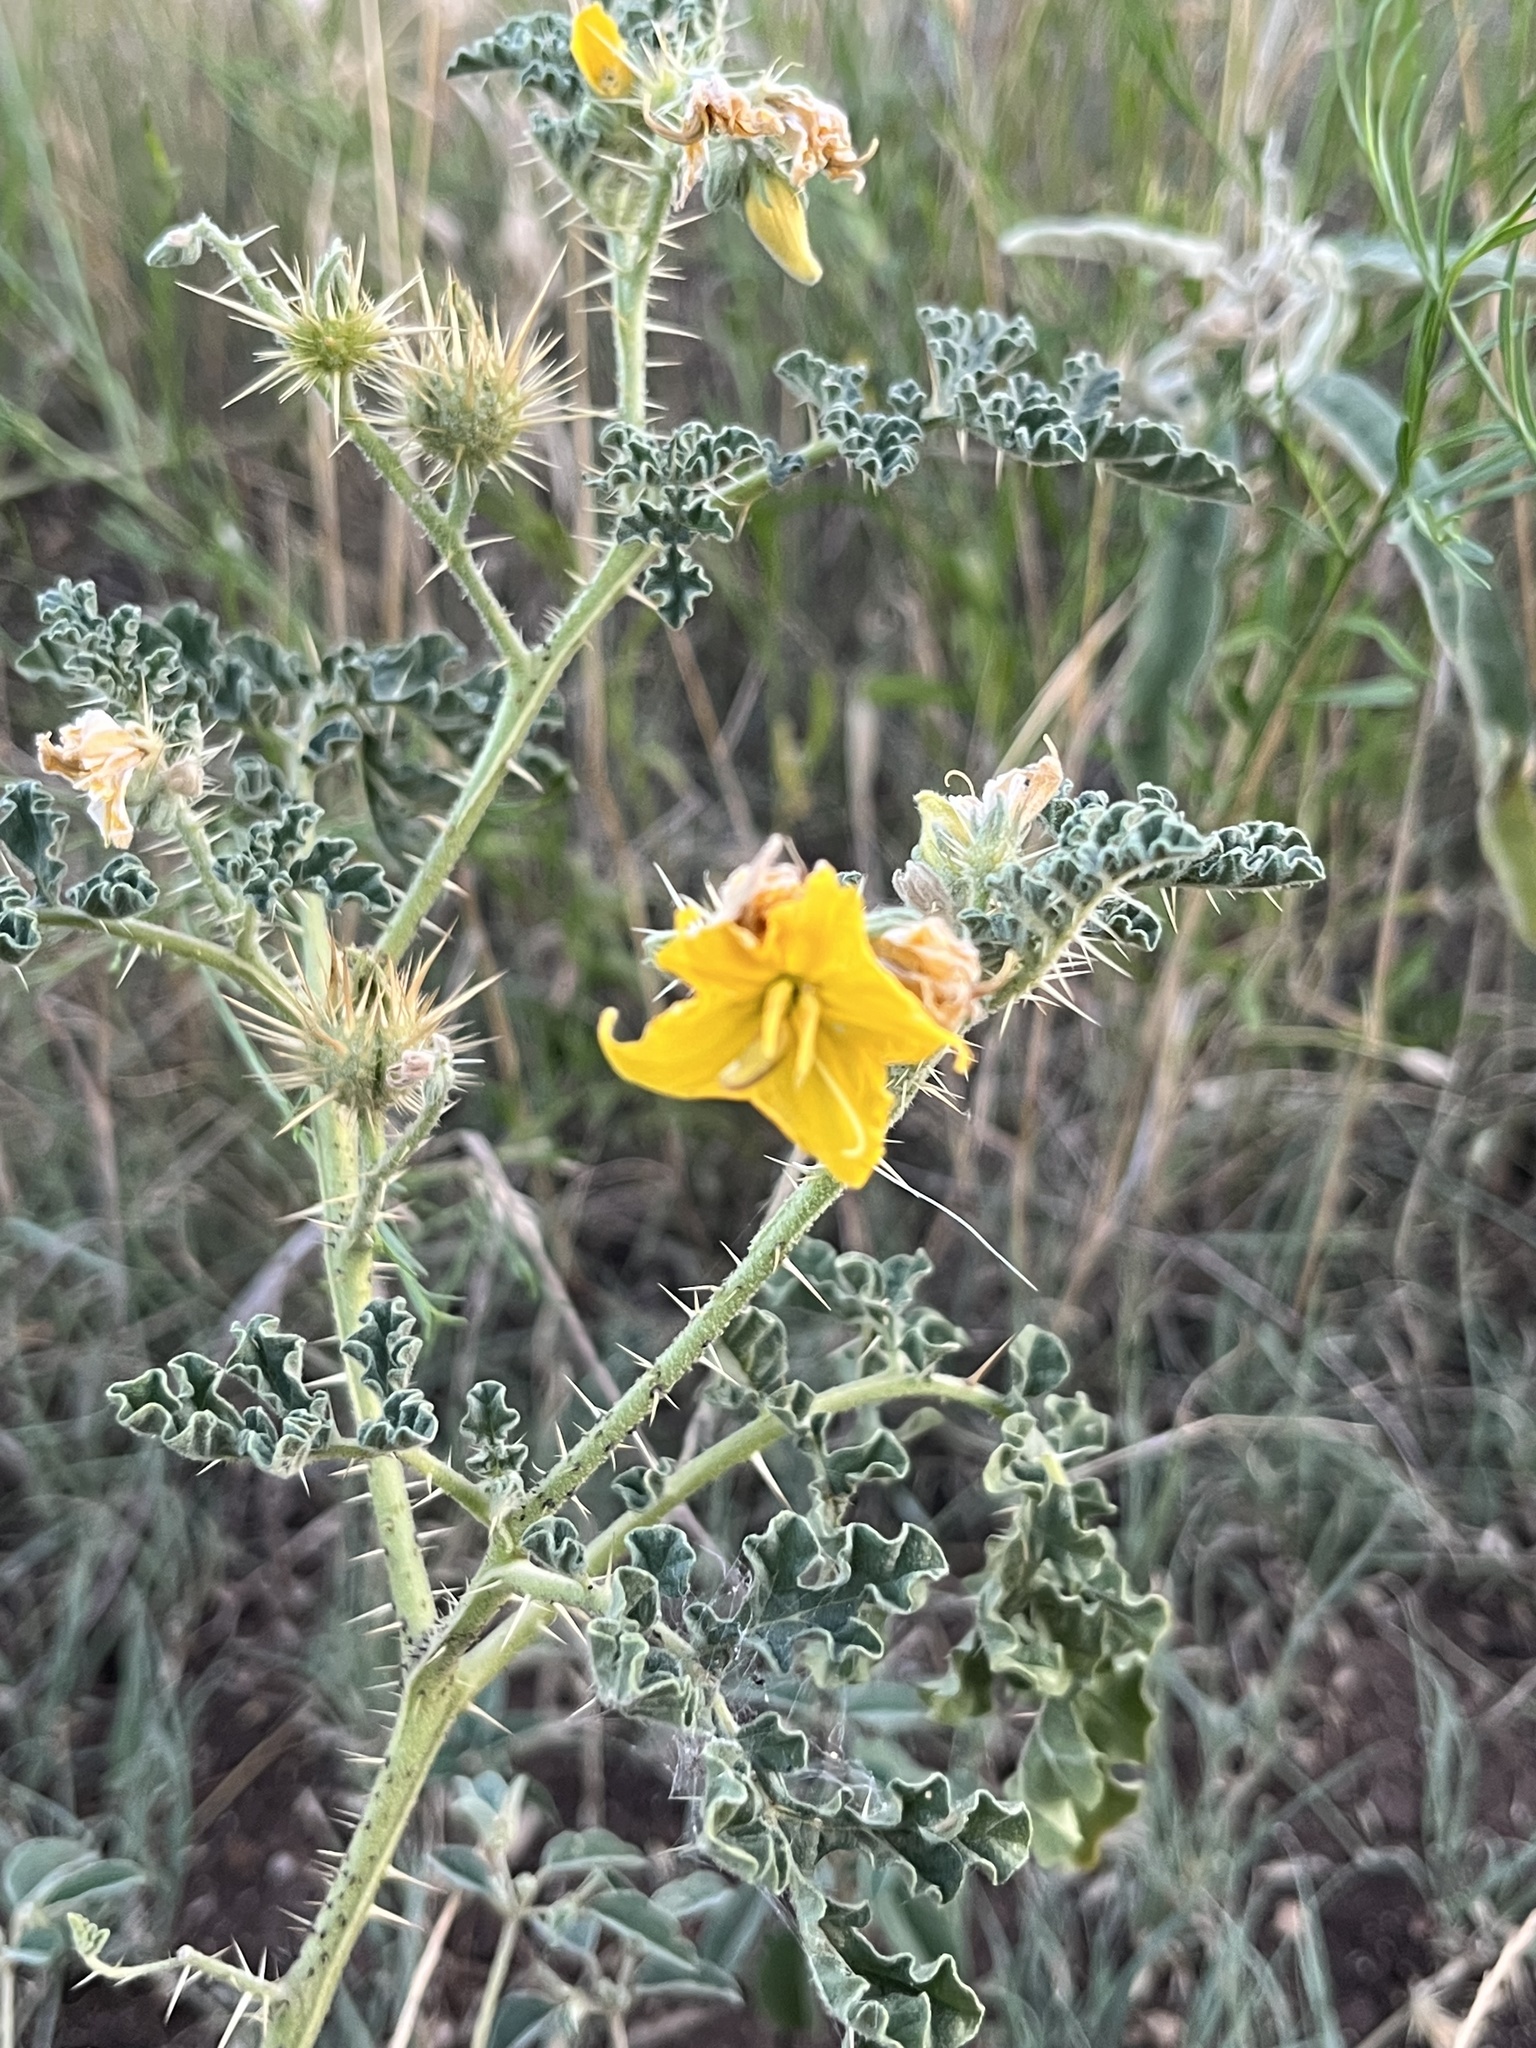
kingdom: Plantae
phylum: Tracheophyta
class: Magnoliopsida
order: Solanales
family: Solanaceae
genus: Solanum
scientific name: Solanum angustifolium
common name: Buffalobur nightshade
